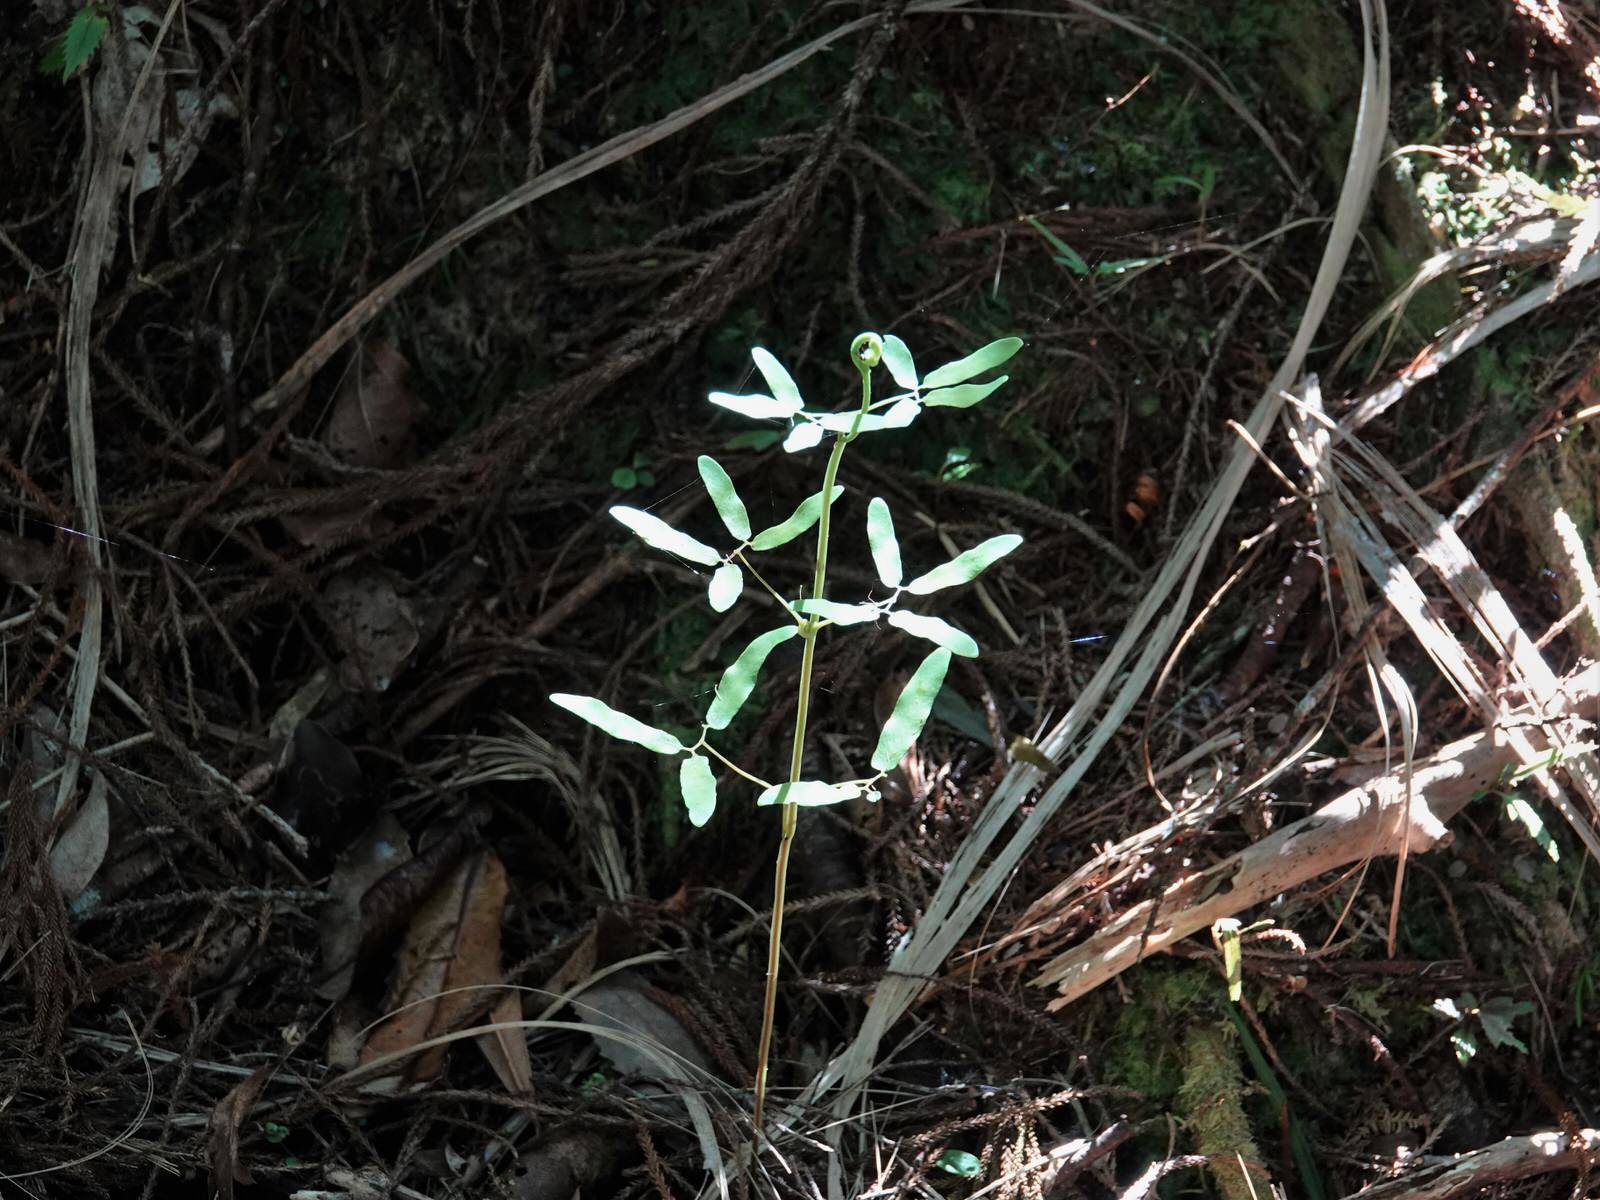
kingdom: Plantae
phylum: Tracheophyta
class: Polypodiopsida
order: Schizaeales
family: Lygodiaceae
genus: Lygodium
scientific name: Lygodium articulatum
